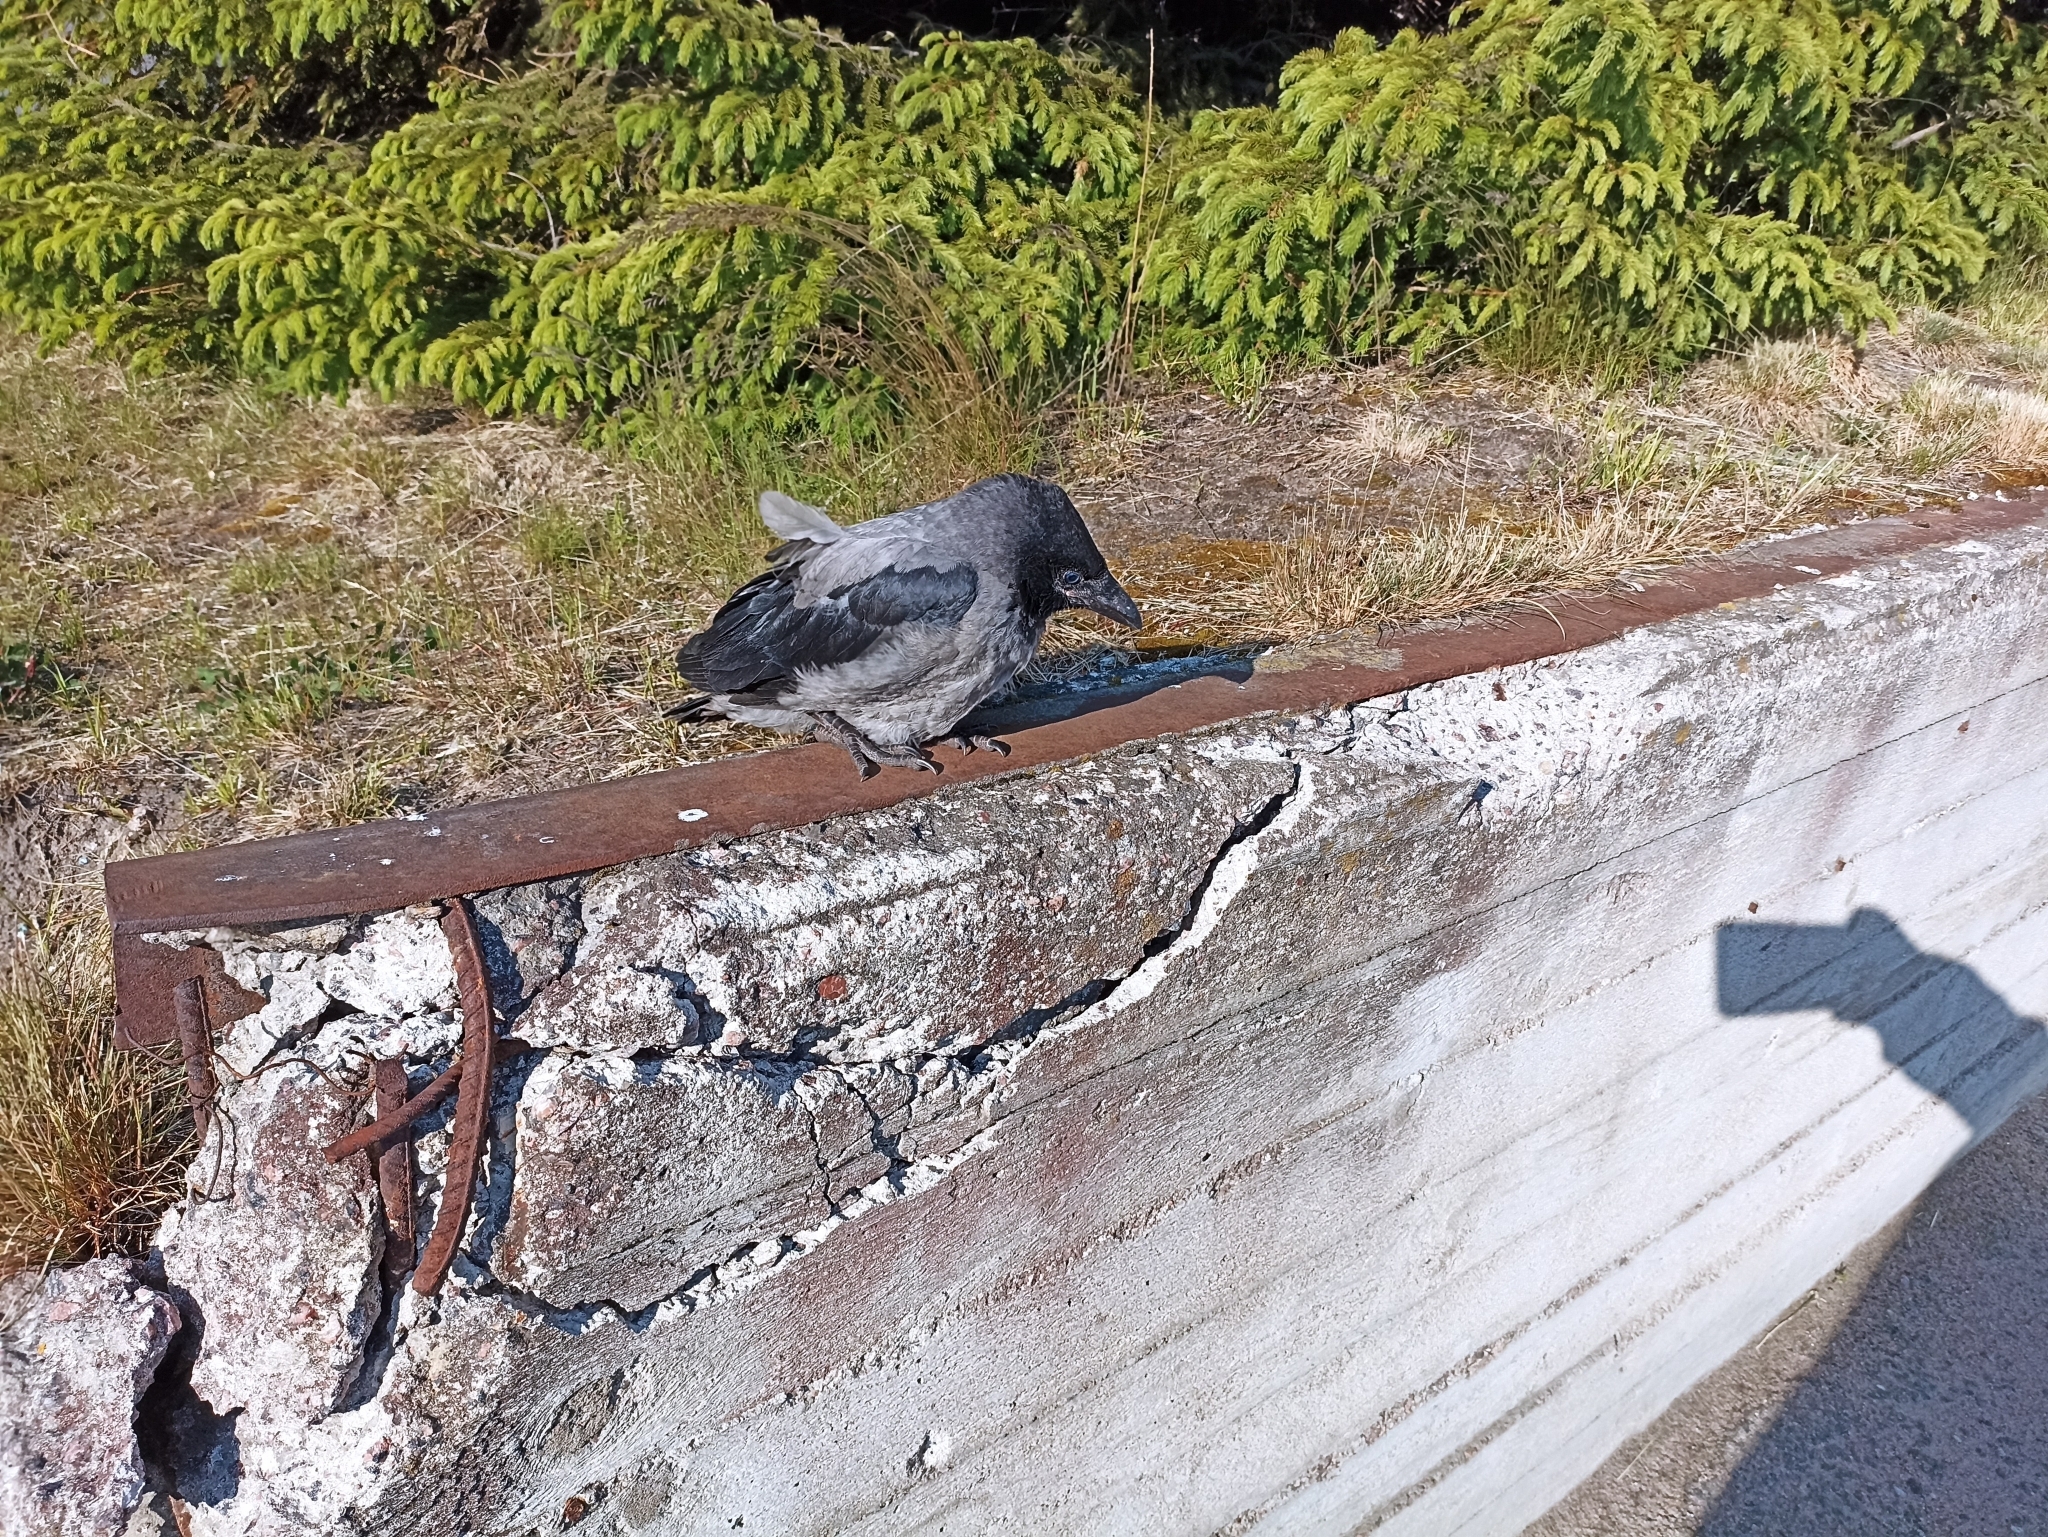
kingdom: Animalia
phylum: Chordata
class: Aves
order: Passeriformes
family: Corvidae
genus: Corvus
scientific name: Corvus cornix
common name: Hooded crow
